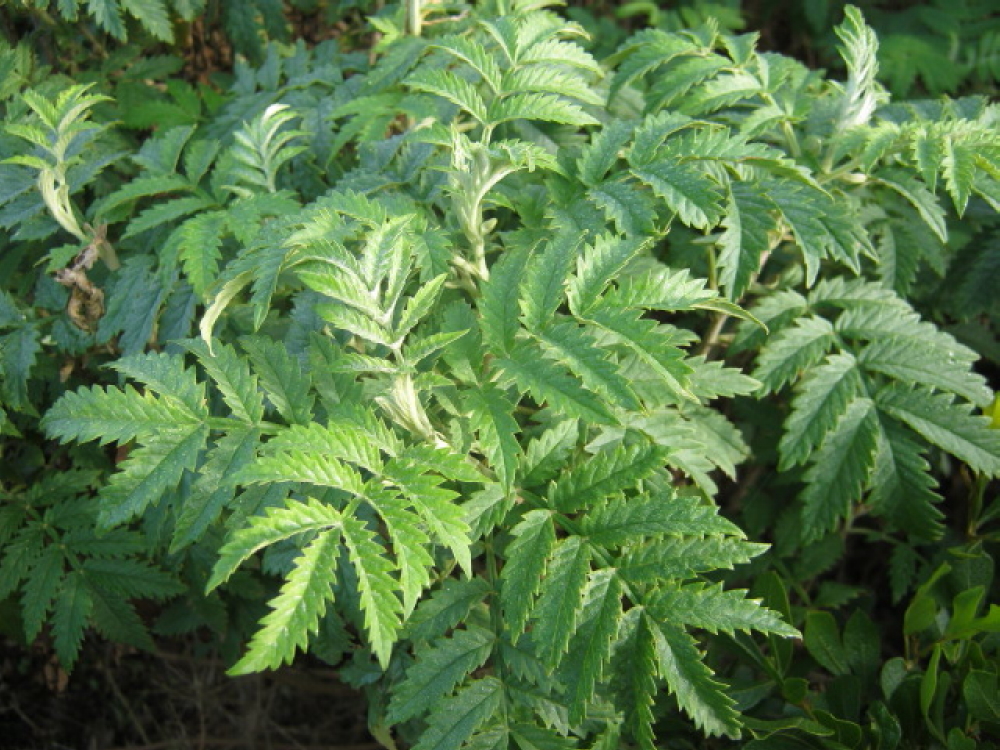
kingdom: Plantae
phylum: Tracheophyta
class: Magnoliopsida
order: Geraniales
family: Melianthaceae
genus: Melianthus
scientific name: Melianthus comosus
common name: Touch-me-not
